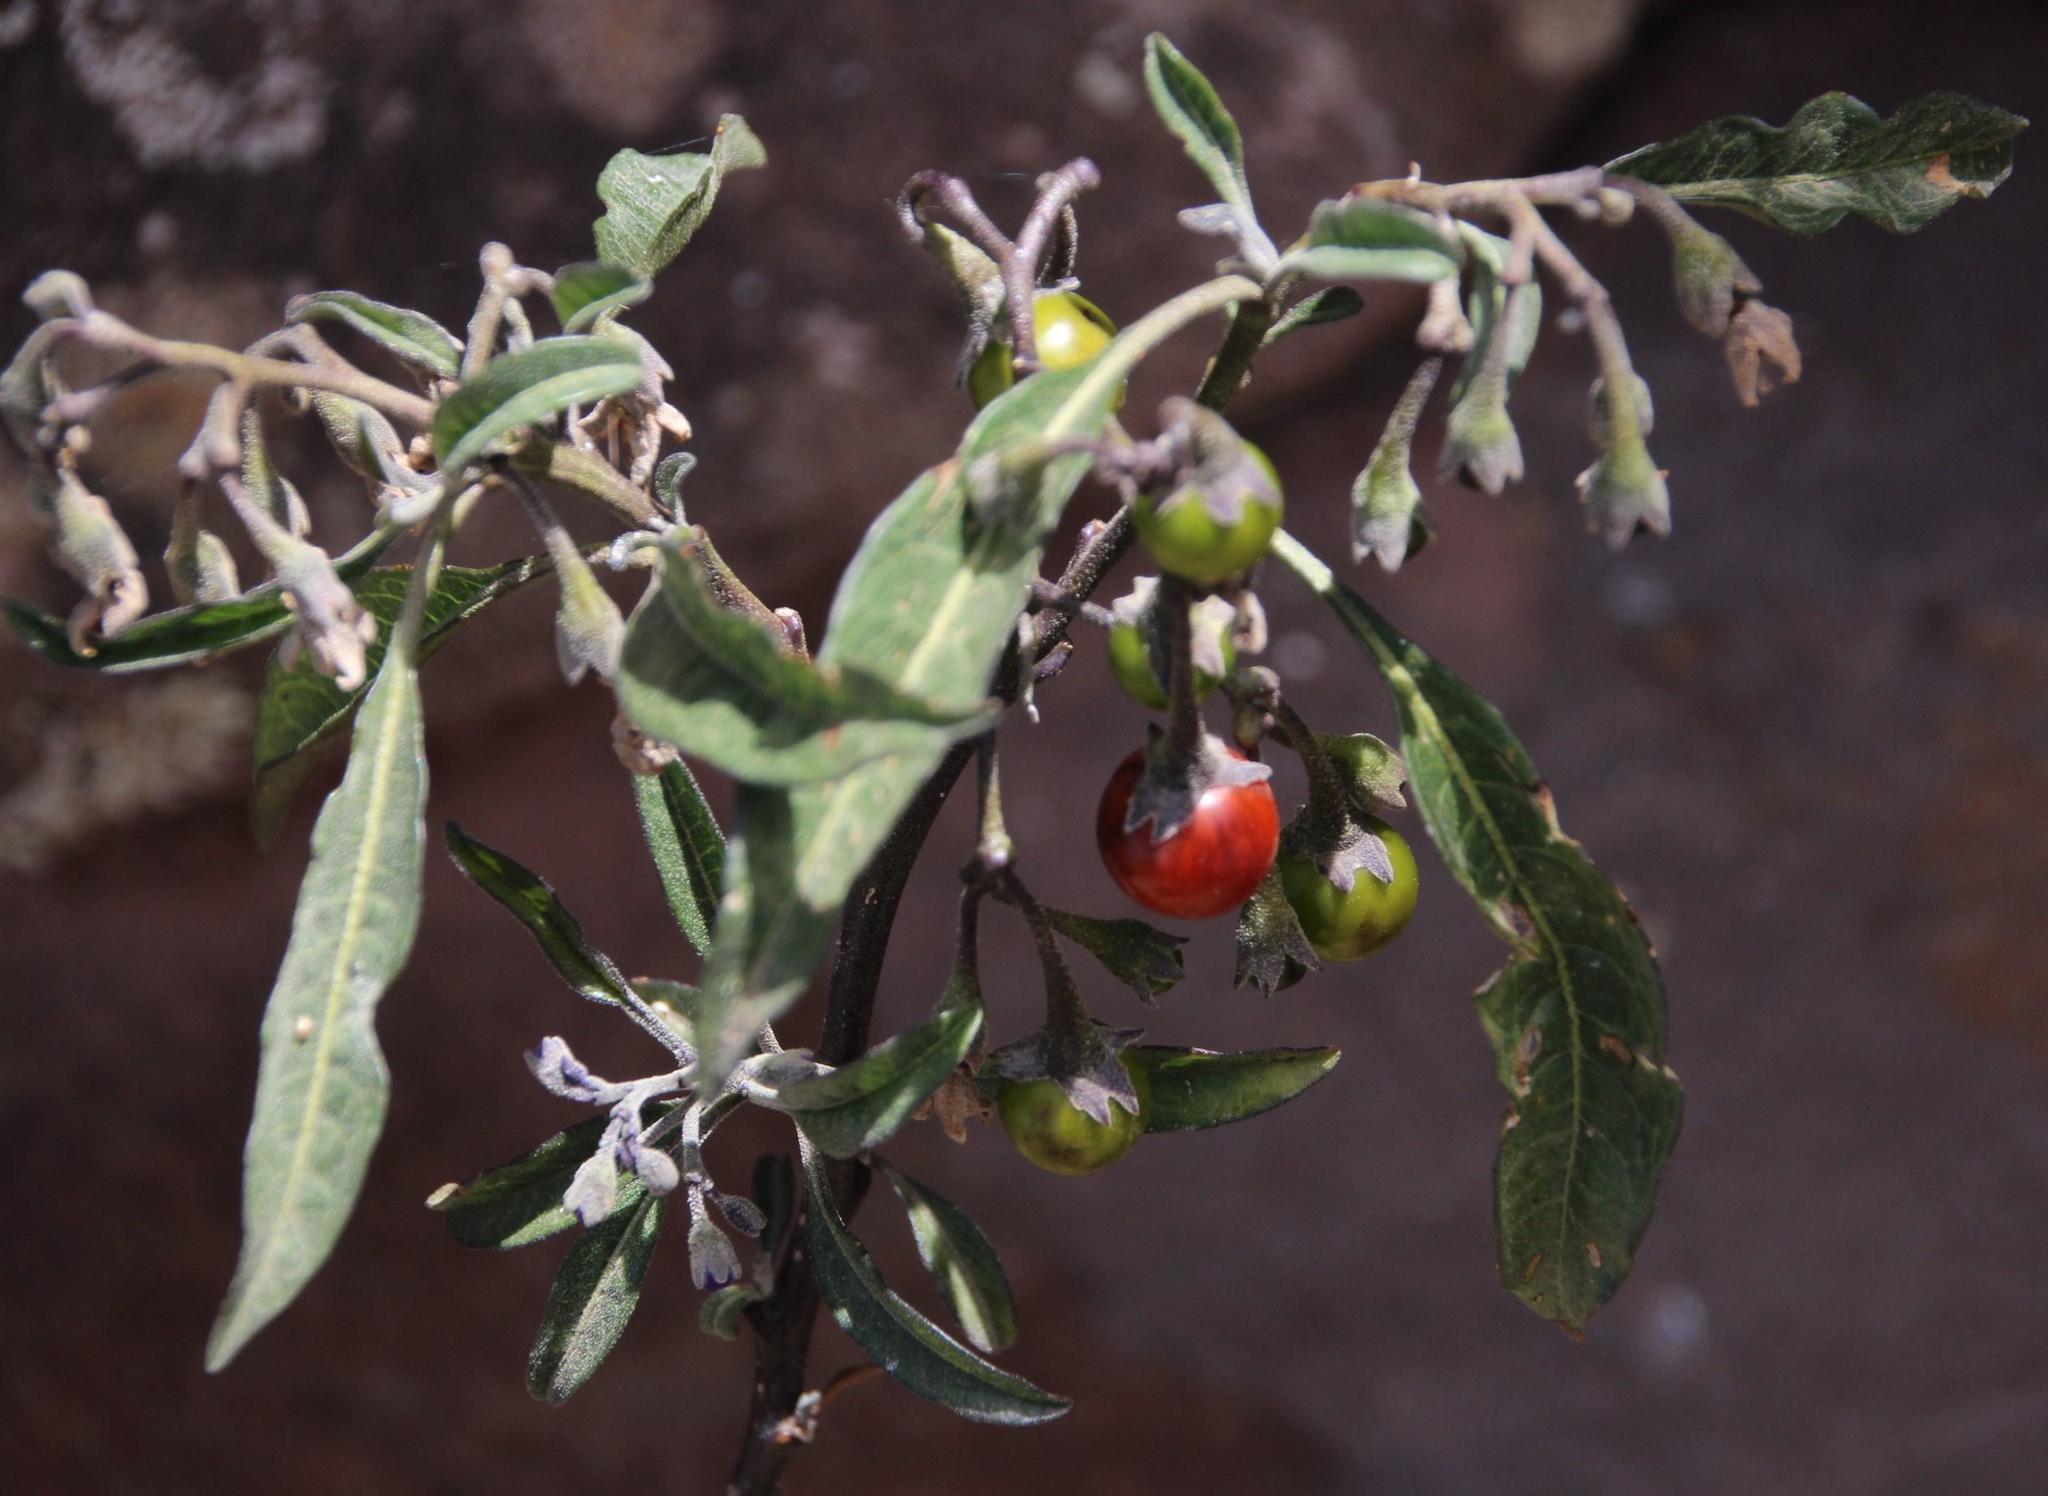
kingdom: Plantae
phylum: Tracheophyta
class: Magnoliopsida
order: Solanales
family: Solanaceae
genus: Solanum
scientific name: Solanum nitidum
